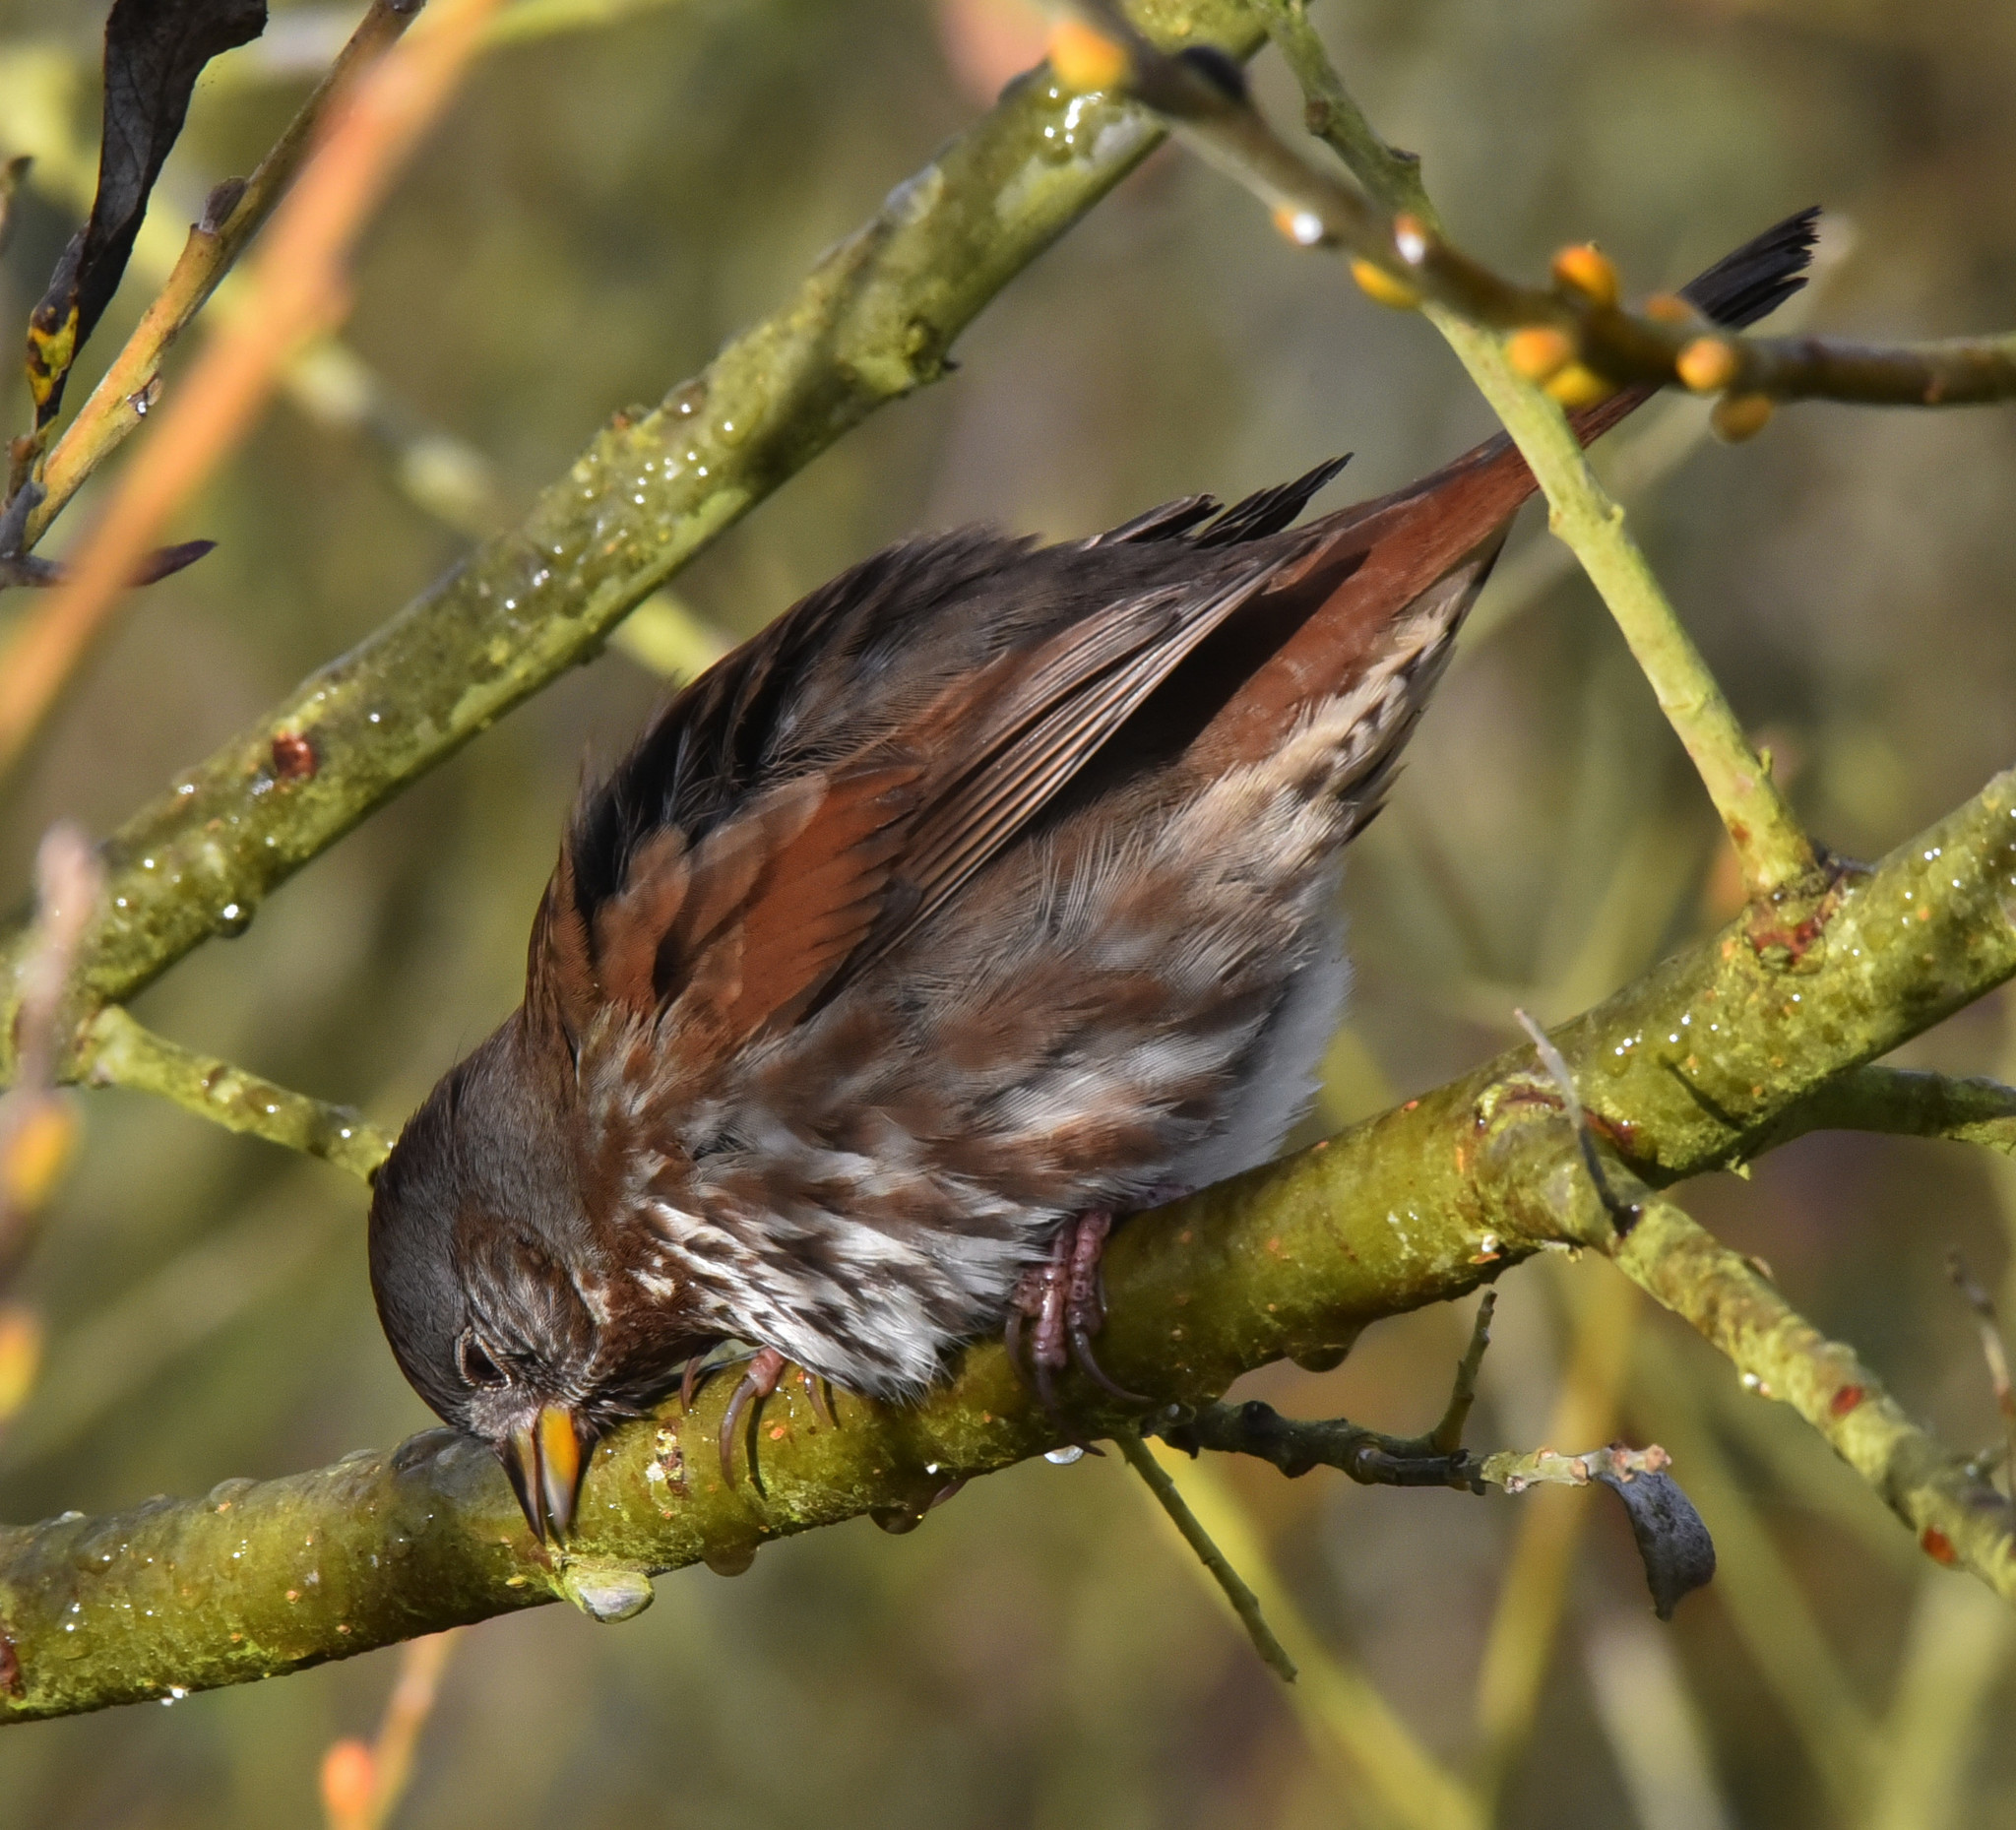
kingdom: Animalia
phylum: Chordata
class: Aves
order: Passeriformes
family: Passerellidae
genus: Passerella
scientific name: Passerella iliaca
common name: Fox sparrow
